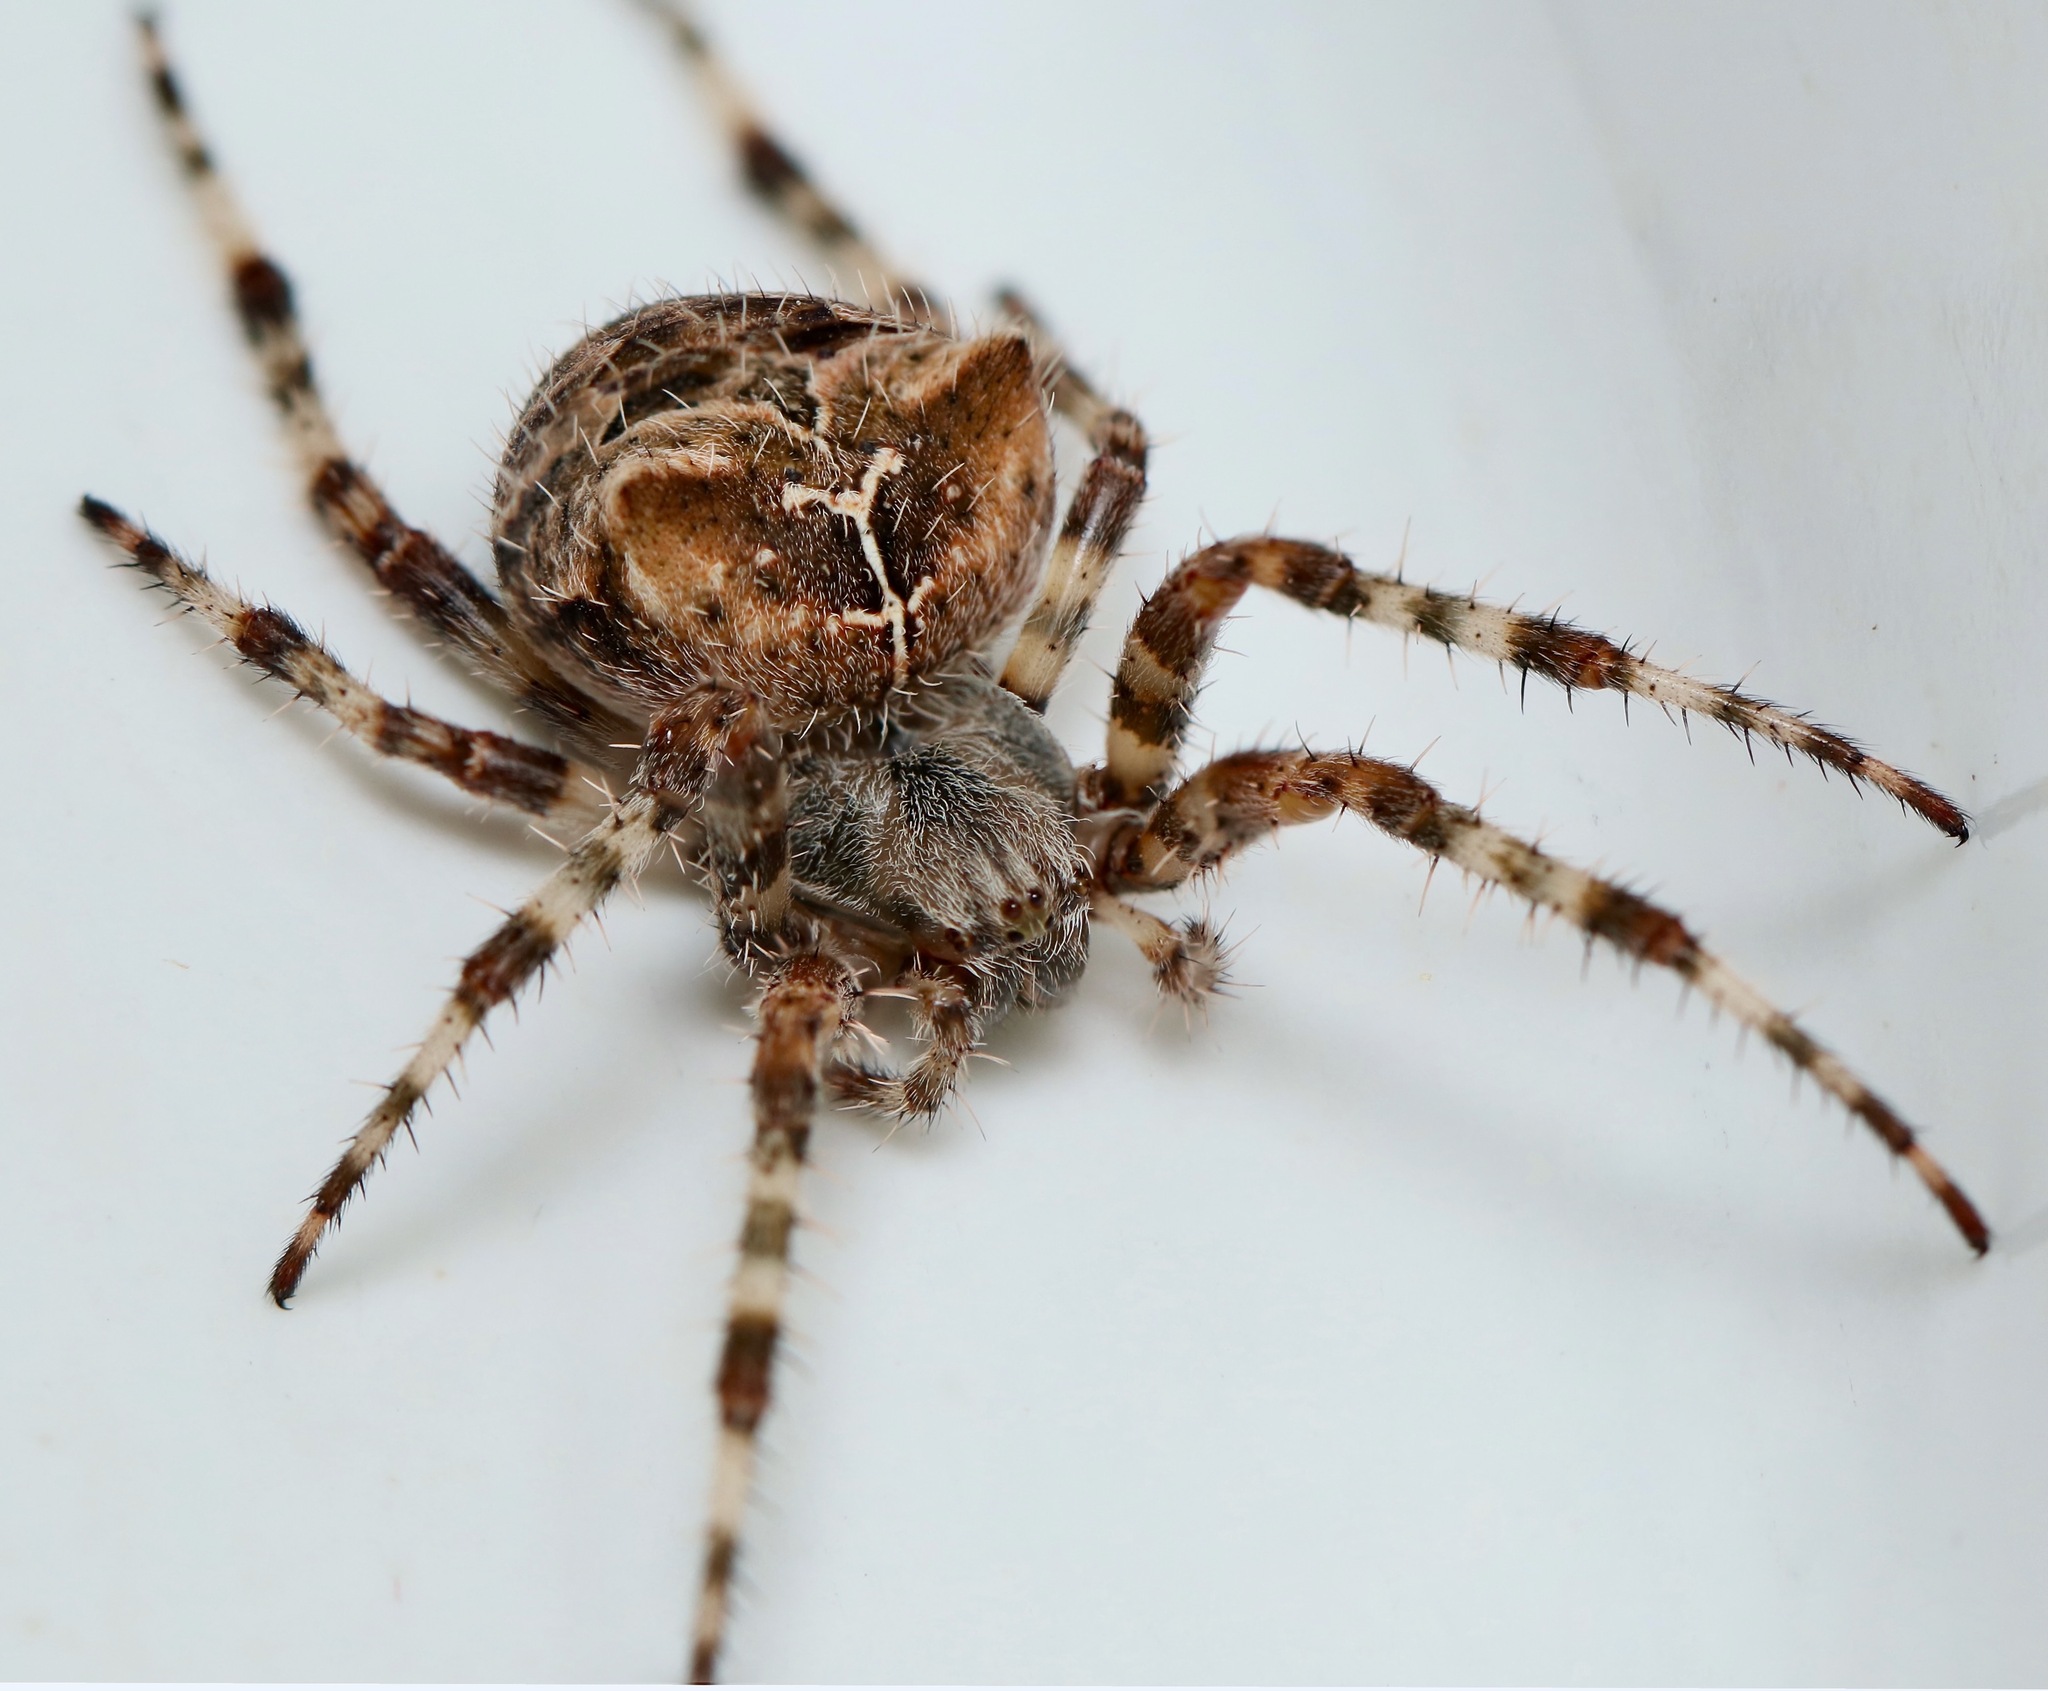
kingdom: Animalia
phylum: Arthropoda
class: Arachnida
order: Araneae
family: Araneidae
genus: Araneus
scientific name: Araneus gemmoides
